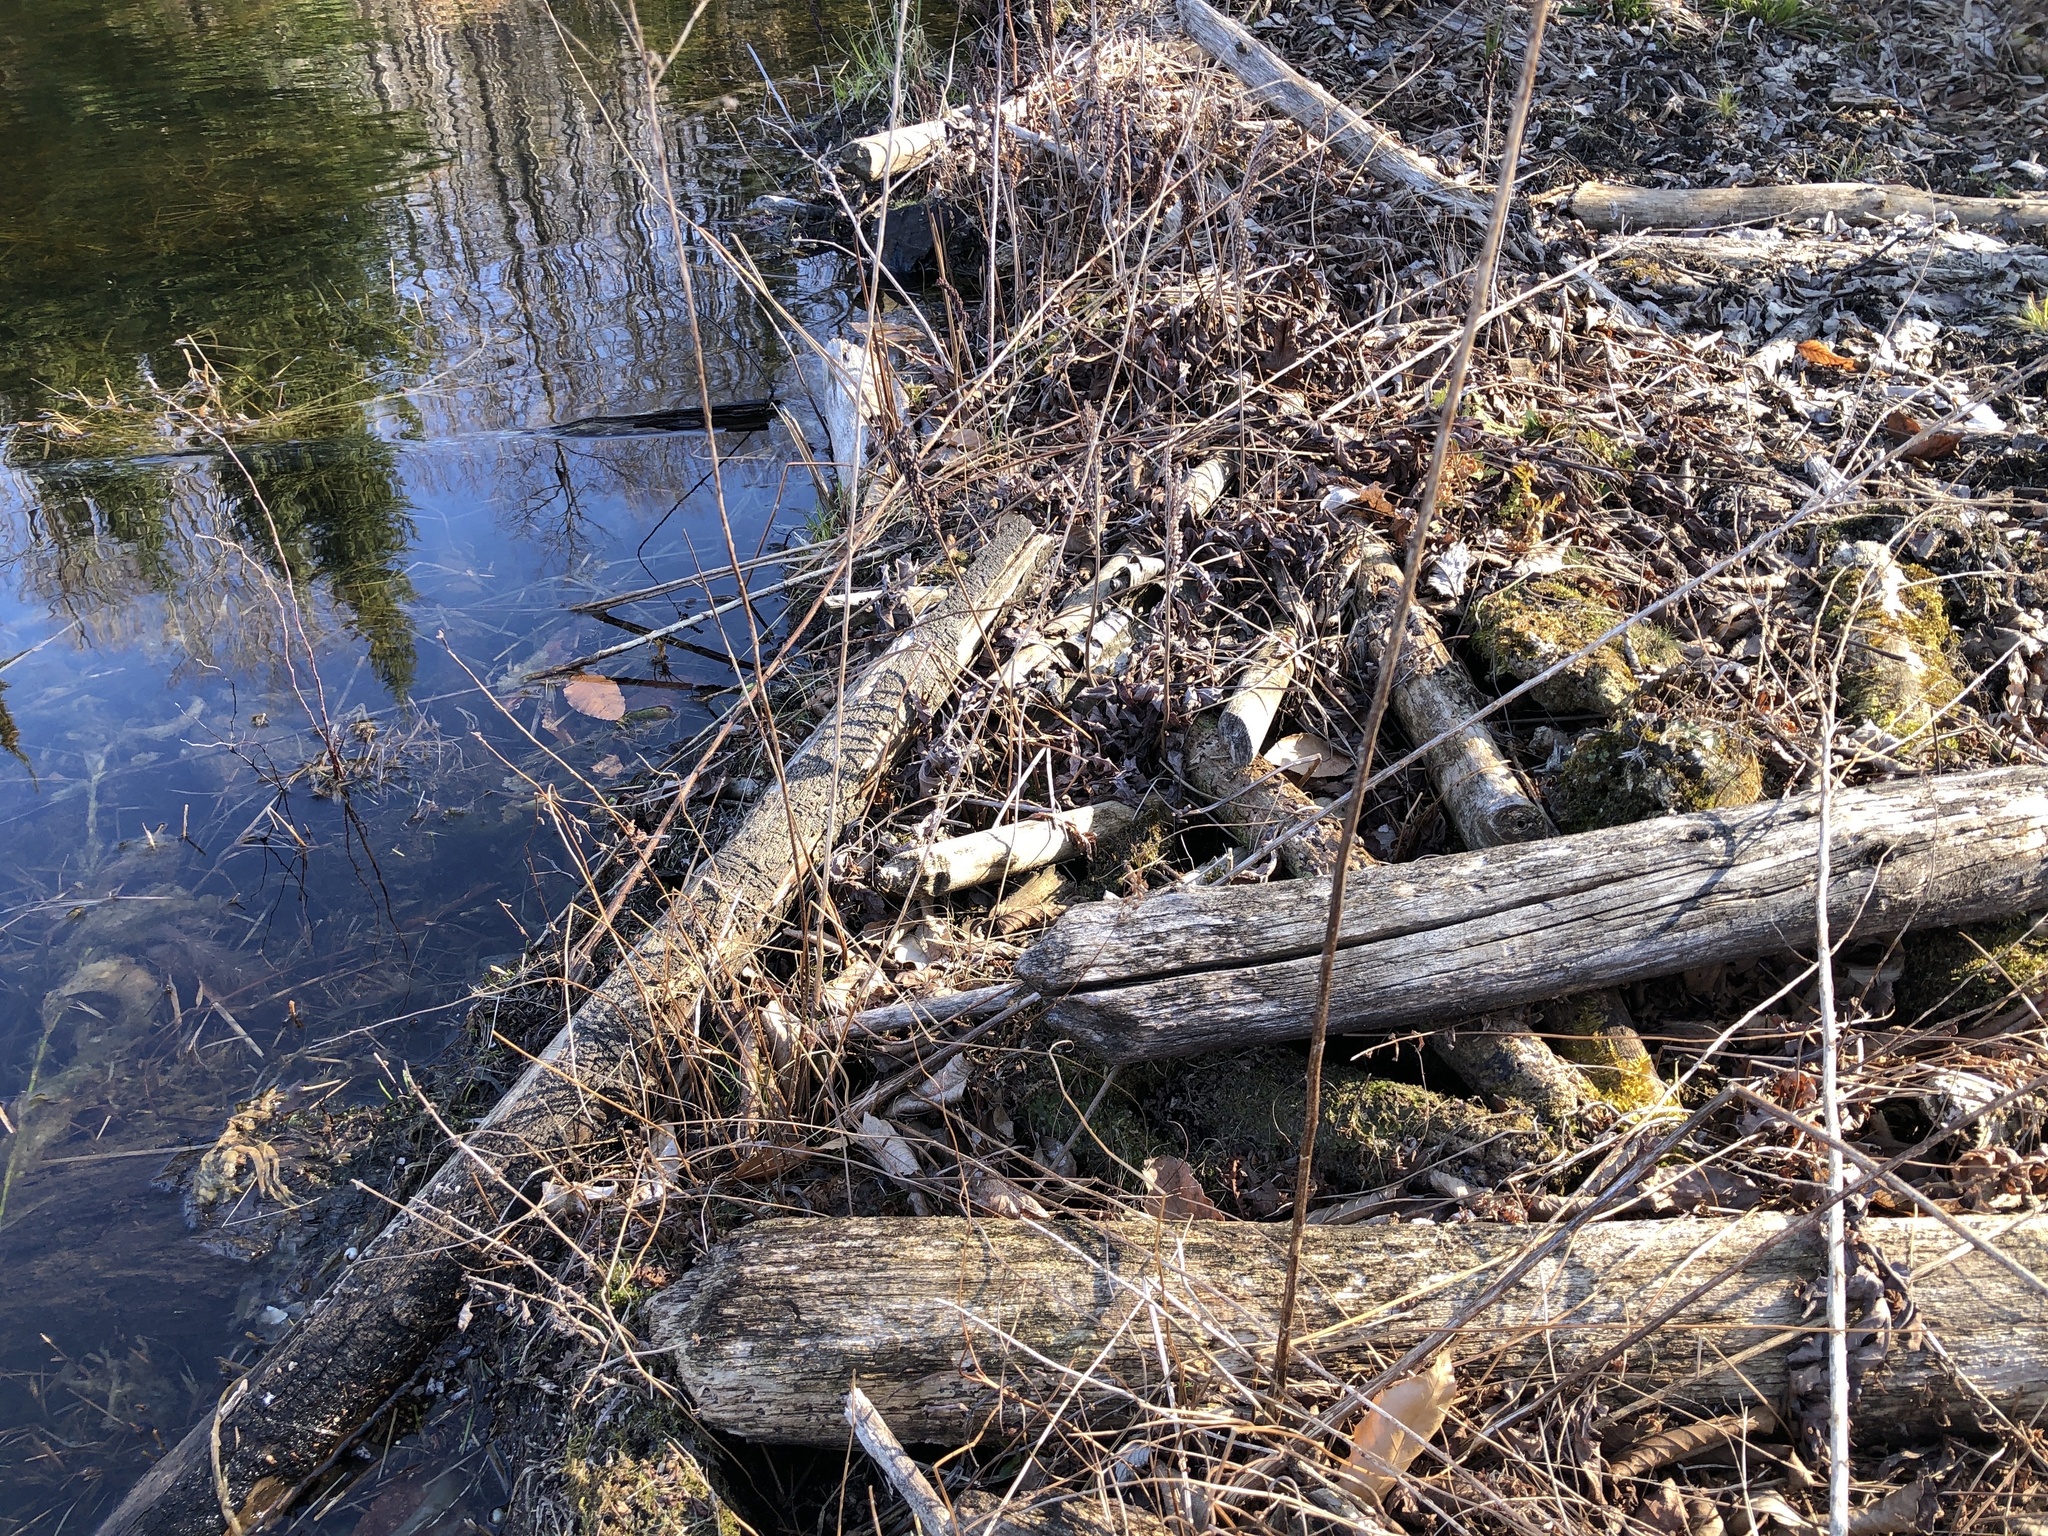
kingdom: Animalia
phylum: Chordata
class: Mammalia
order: Rodentia
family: Castoridae
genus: Castor
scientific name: Castor canadensis
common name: American beaver
